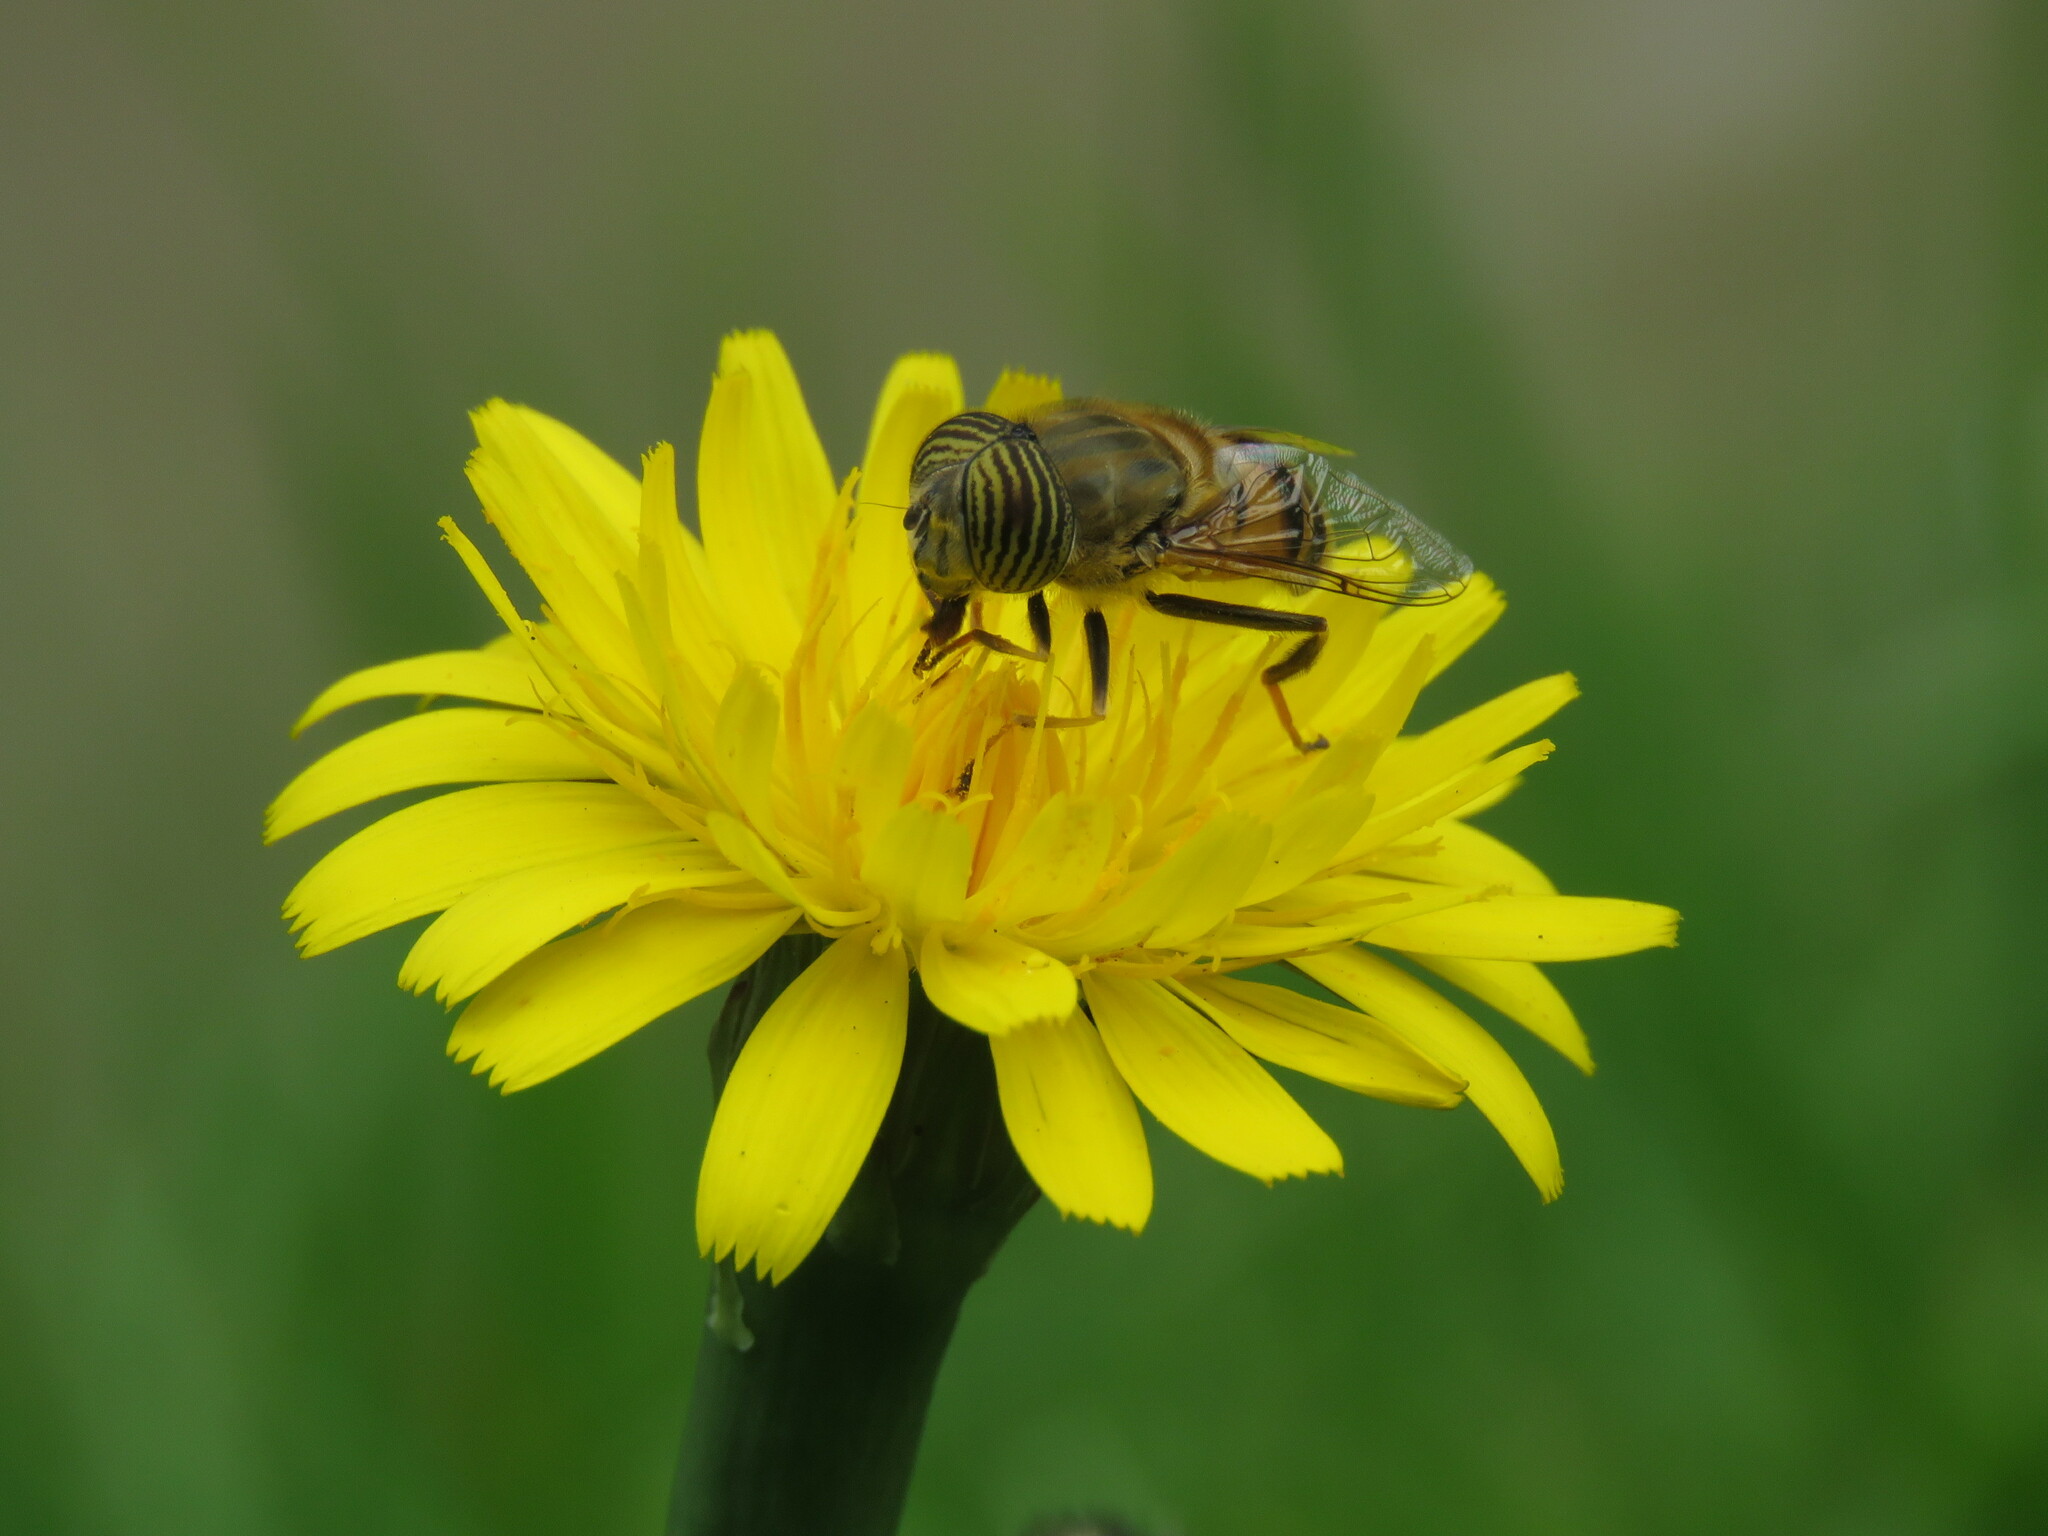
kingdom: Animalia
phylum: Arthropoda
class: Insecta
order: Diptera
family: Syrphidae
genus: Eristalinus
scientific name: Eristalinus taeniops
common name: Syrphid fly
